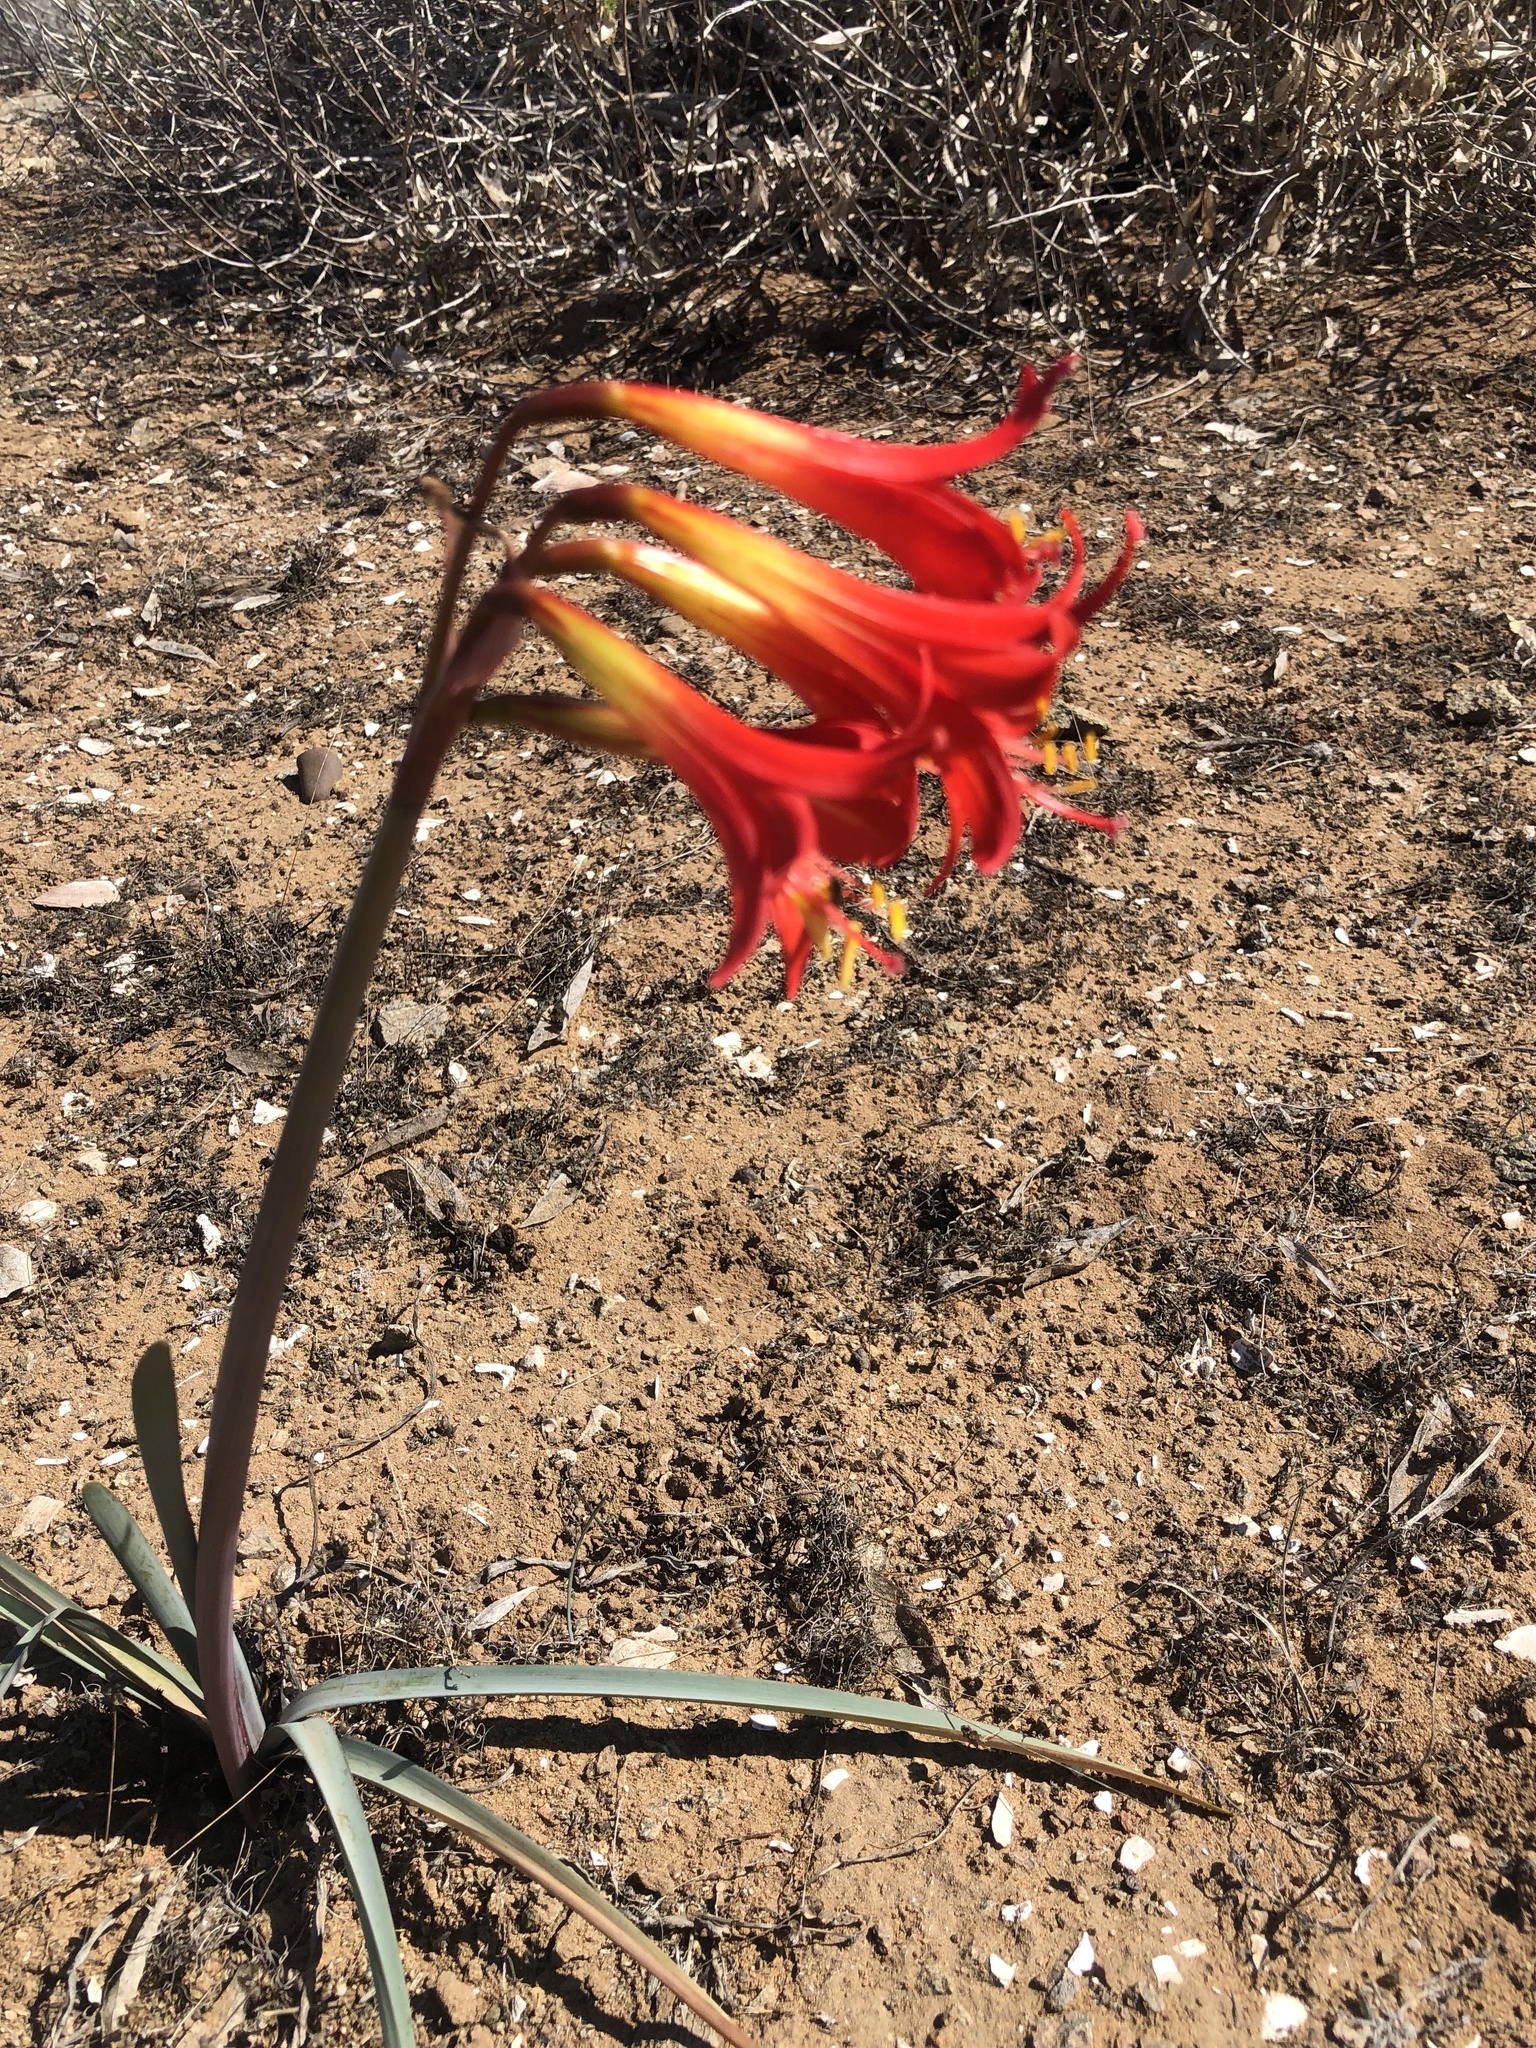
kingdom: Plantae
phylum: Tracheophyta
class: Liliopsida
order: Asparagales
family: Amaryllidaceae
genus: Zephyranthes
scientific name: Zephyranthes phycelloides
